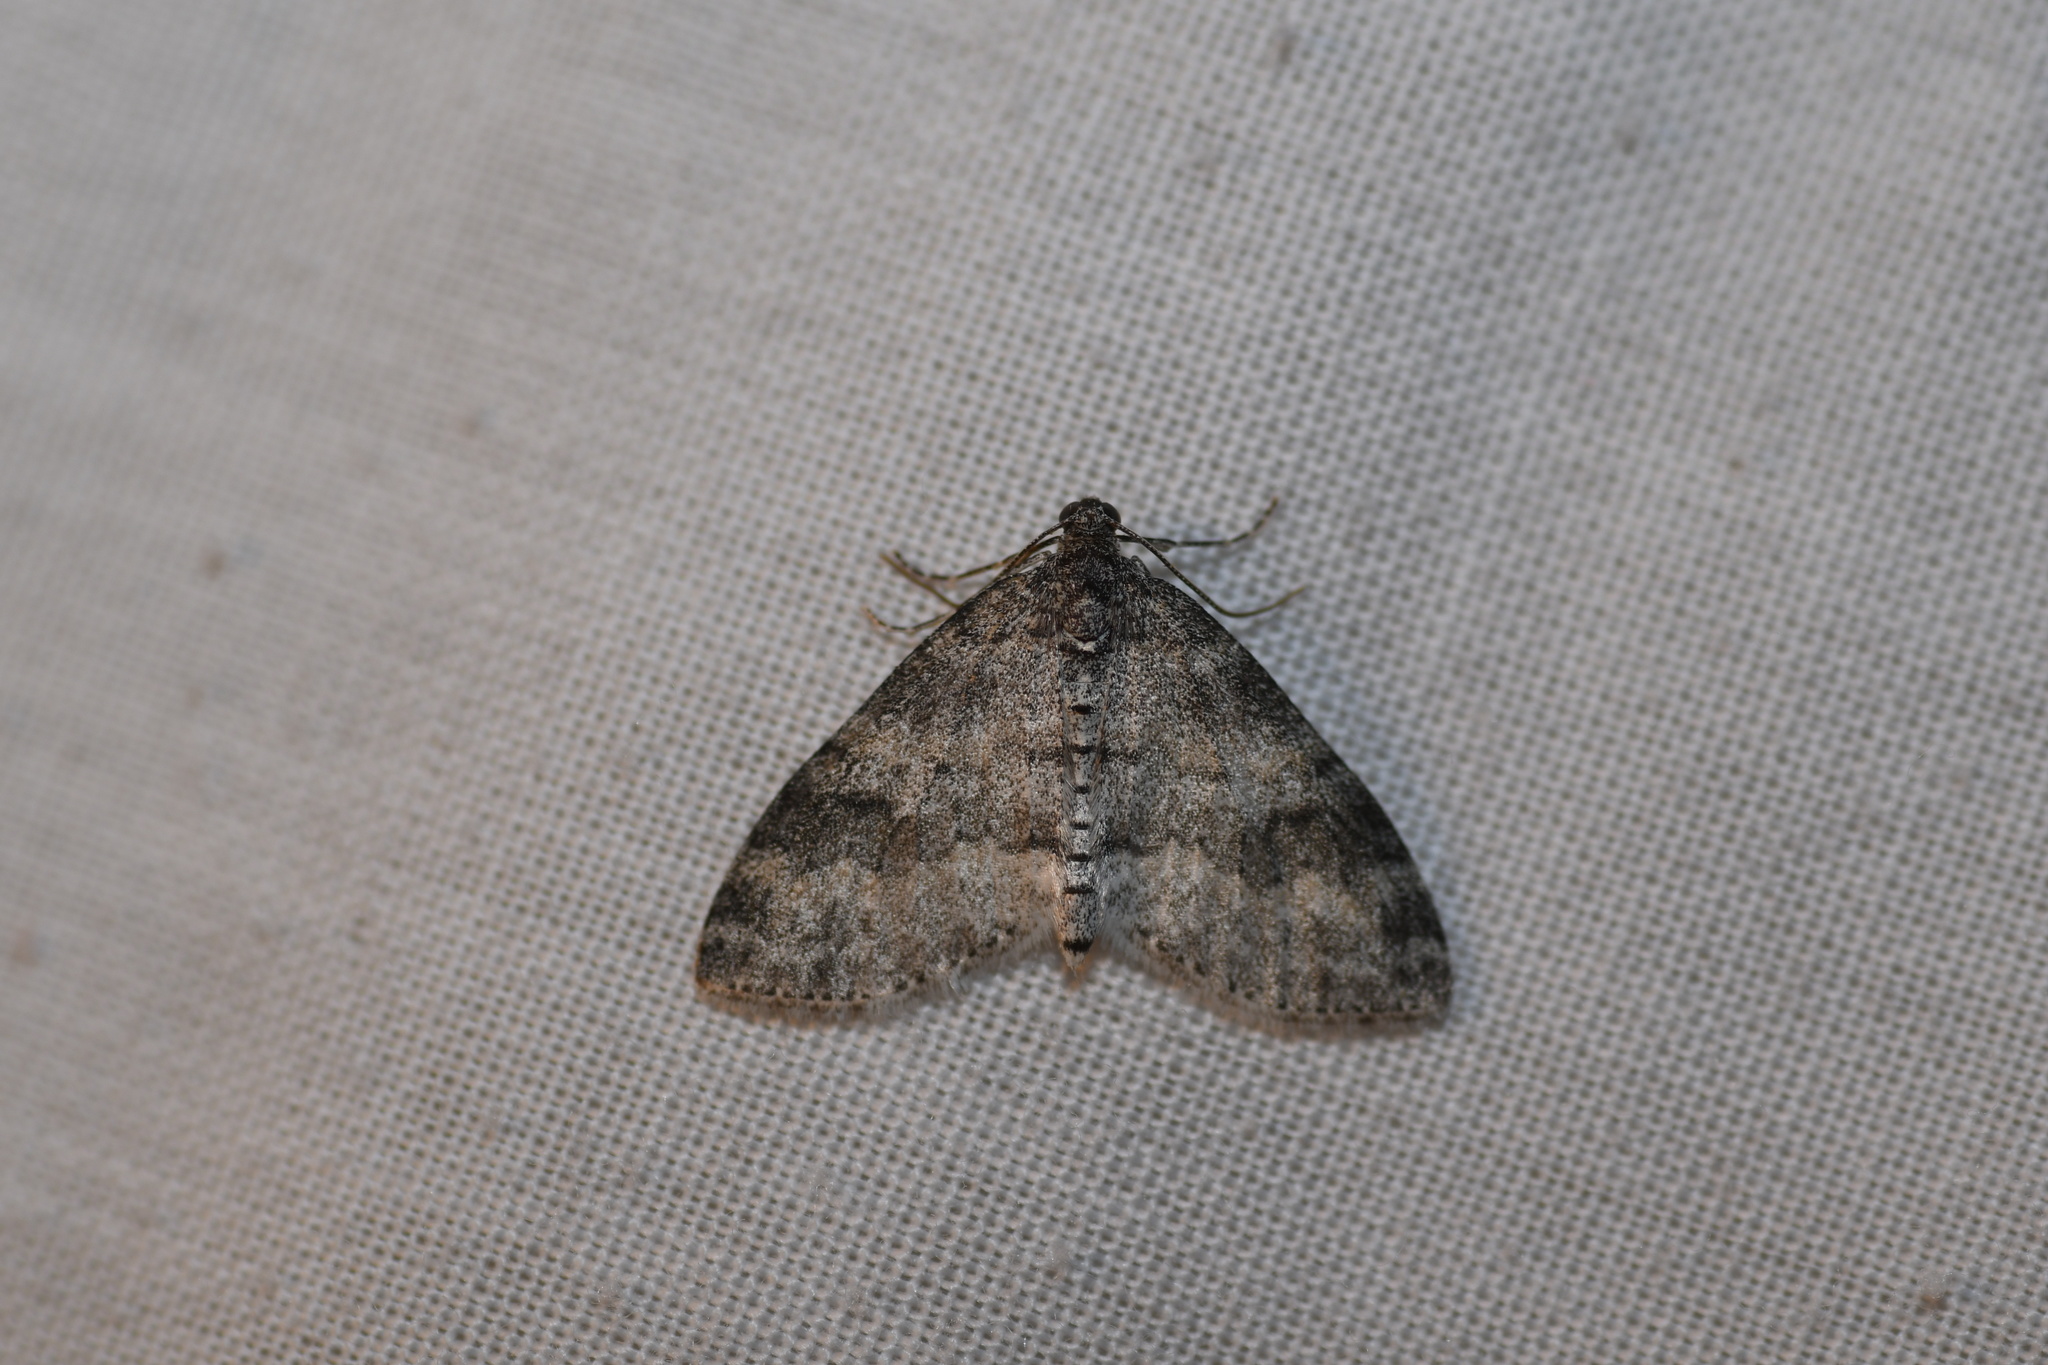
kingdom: Animalia
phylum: Arthropoda
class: Insecta
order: Lepidoptera
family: Geometridae
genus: Lobophora
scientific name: Lobophora nivigerata
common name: Powdered bigwing
